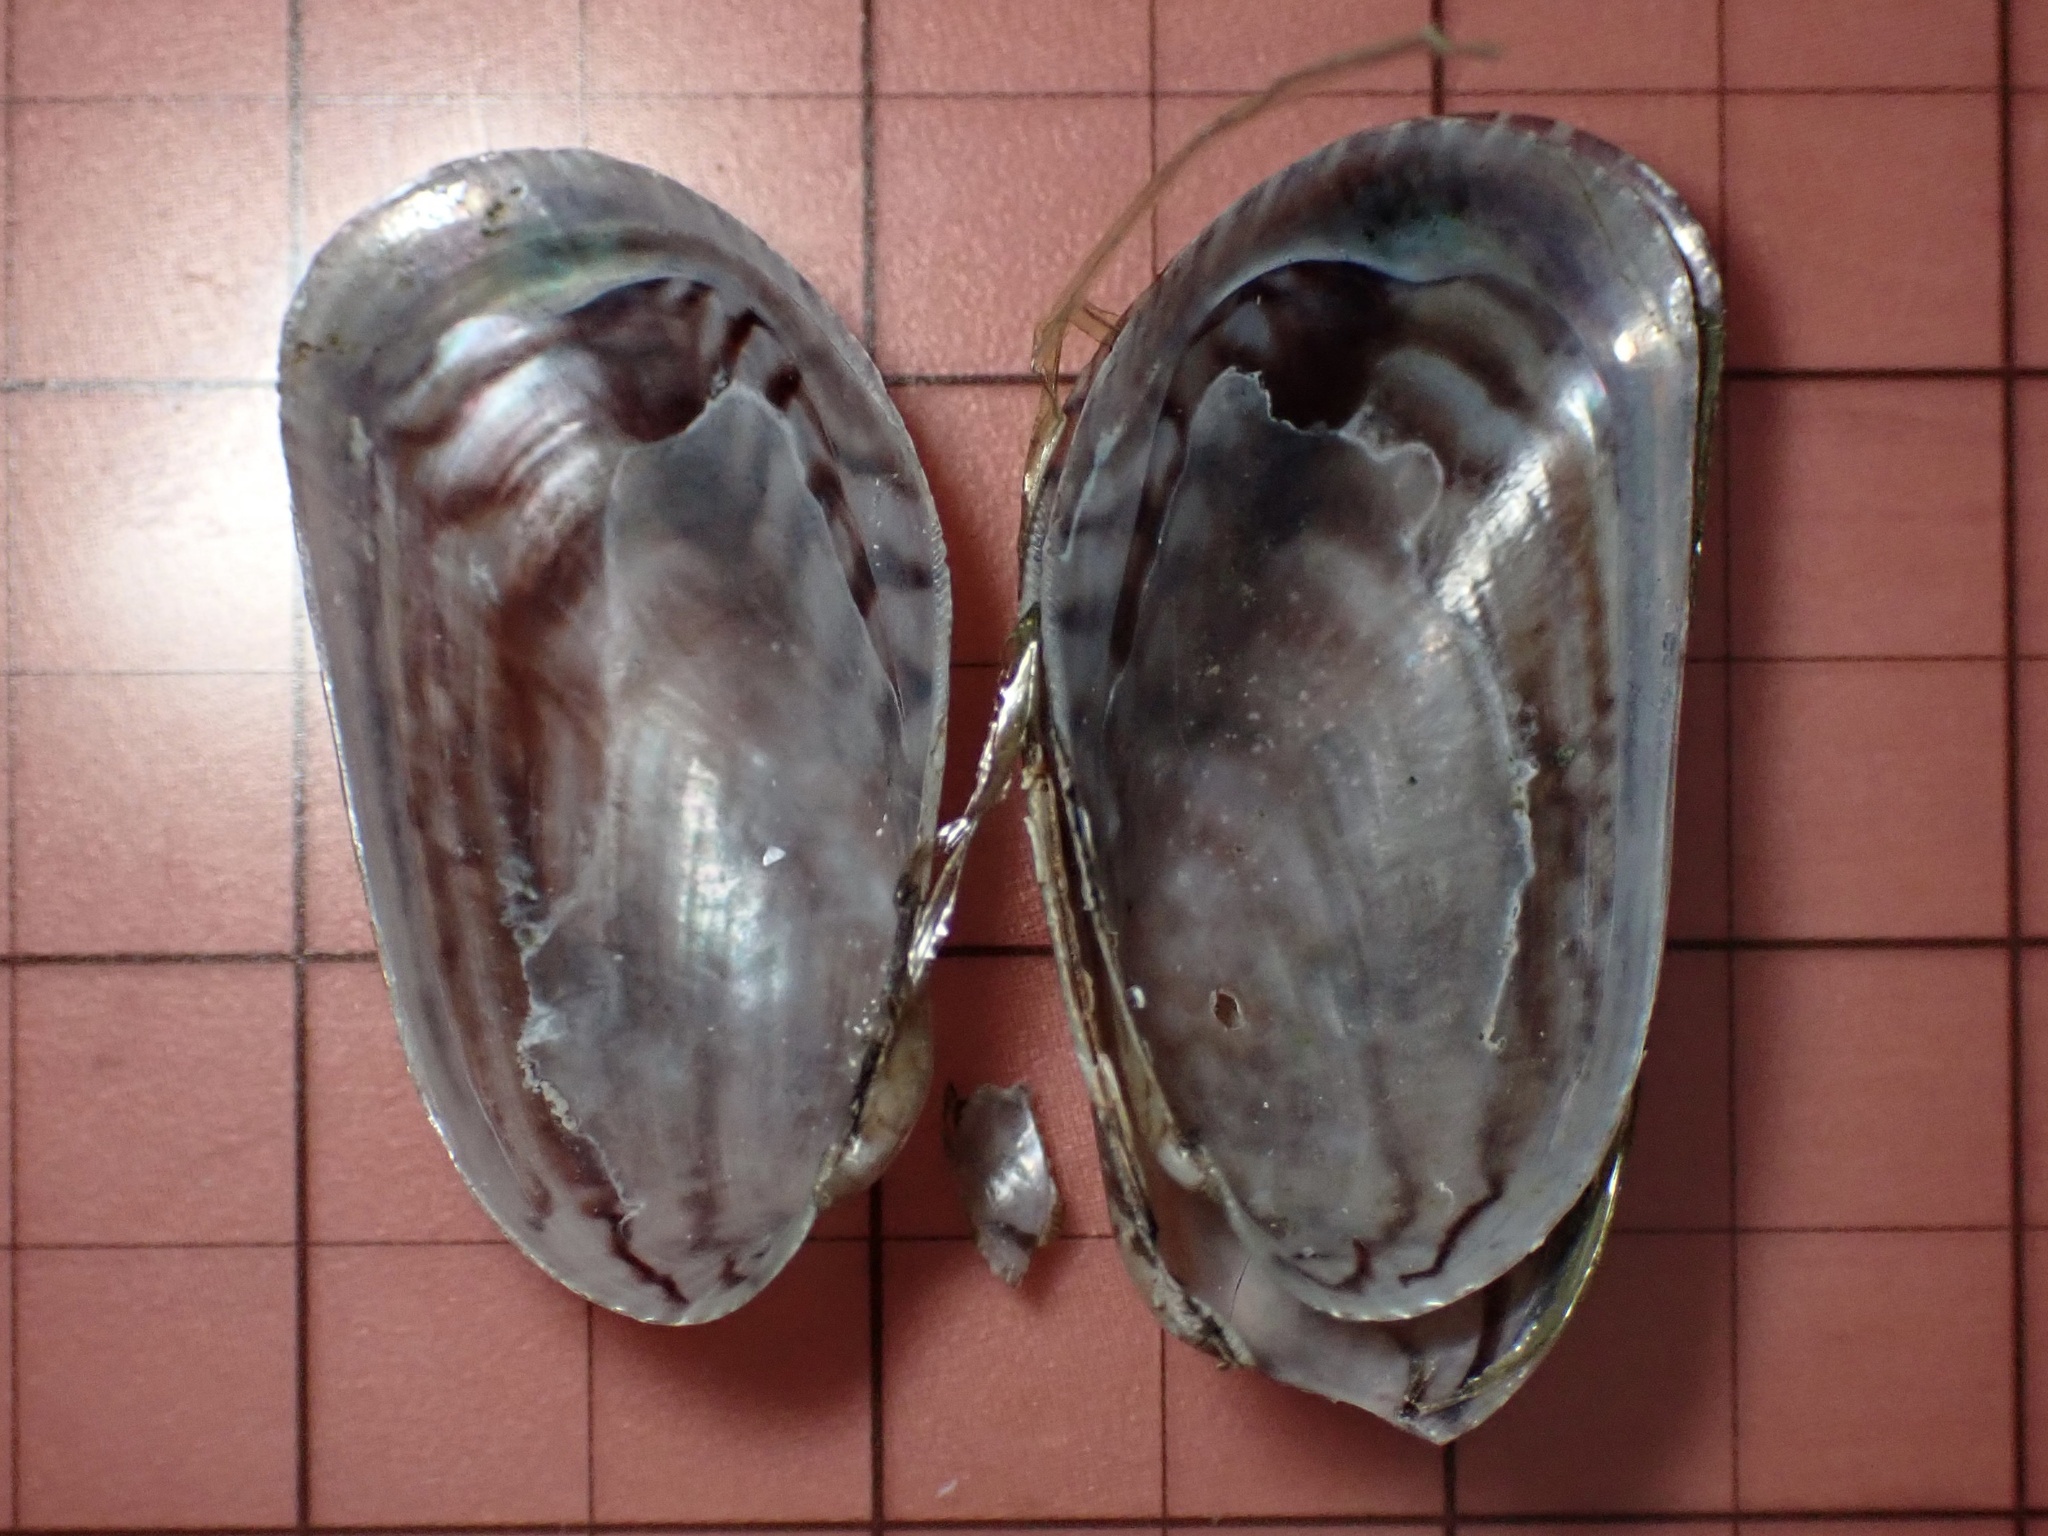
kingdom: Animalia
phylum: Mollusca
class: Bivalvia
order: Mytilida
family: Mytilidae
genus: Arcuatula
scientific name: Arcuatula senhousia
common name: Asian mussel
